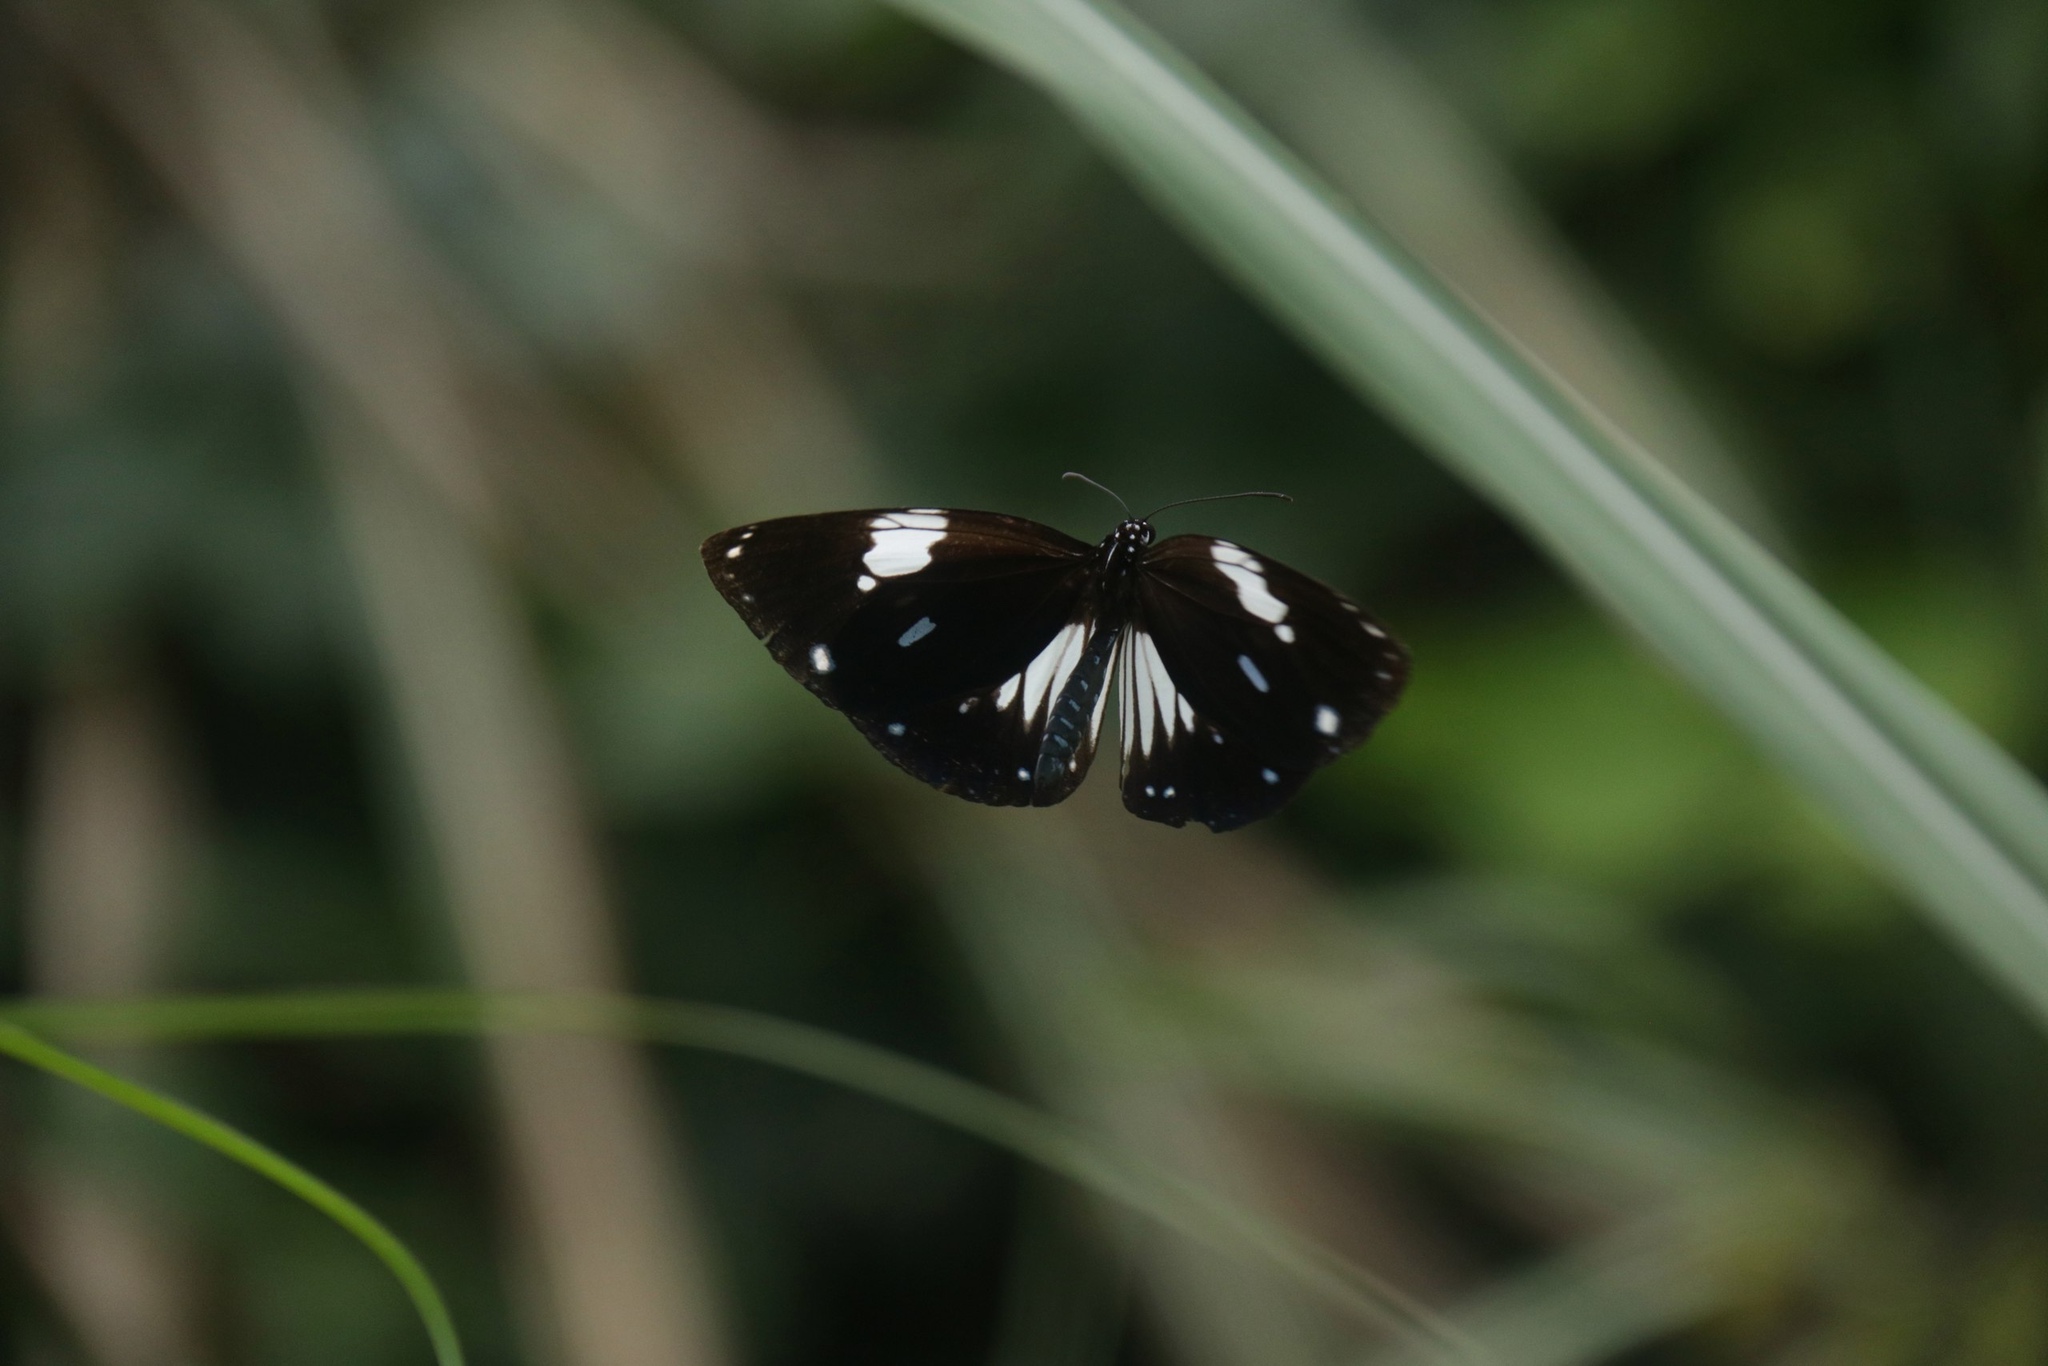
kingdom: Animalia
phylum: Arthropoda
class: Insecta
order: Lepidoptera
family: Nymphalidae
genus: Euploea
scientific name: Euploea radamanthus
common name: Magpie crow butterfly
